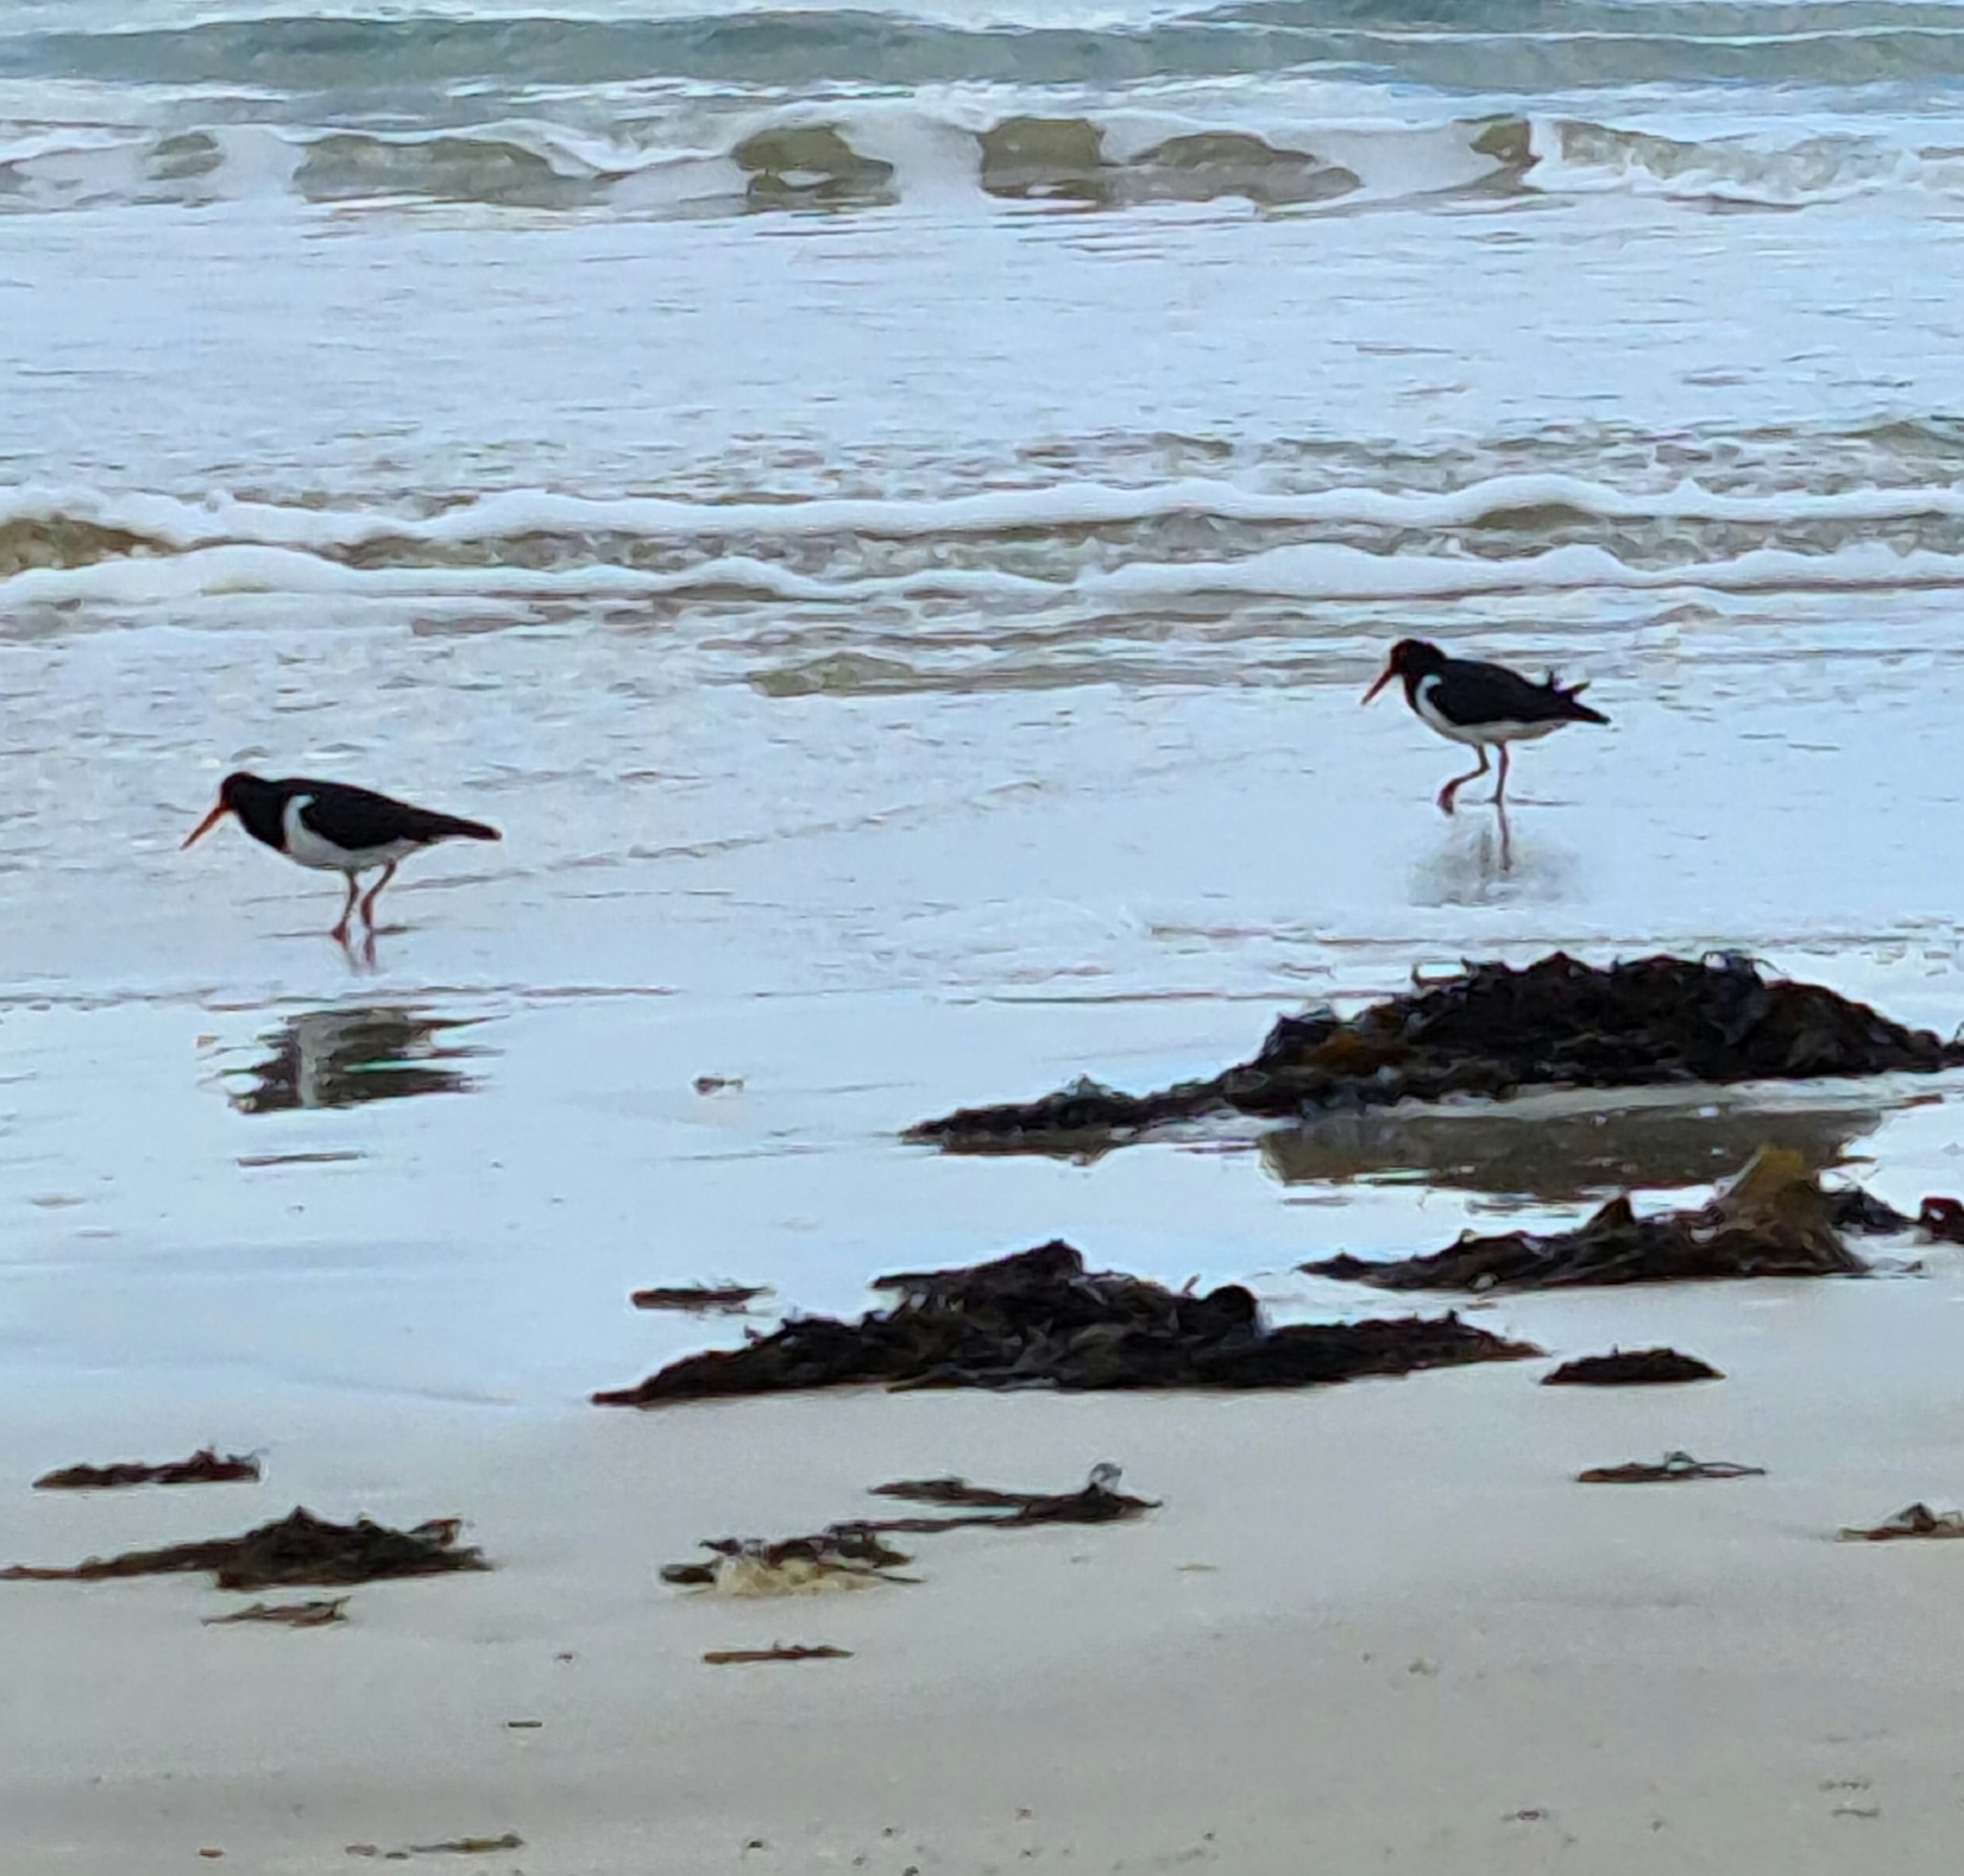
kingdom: Animalia
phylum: Chordata
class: Aves
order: Charadriiformes
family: Haematopodidae
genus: Haematopus
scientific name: Haematopus longirostris
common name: Pied oystercatcher
